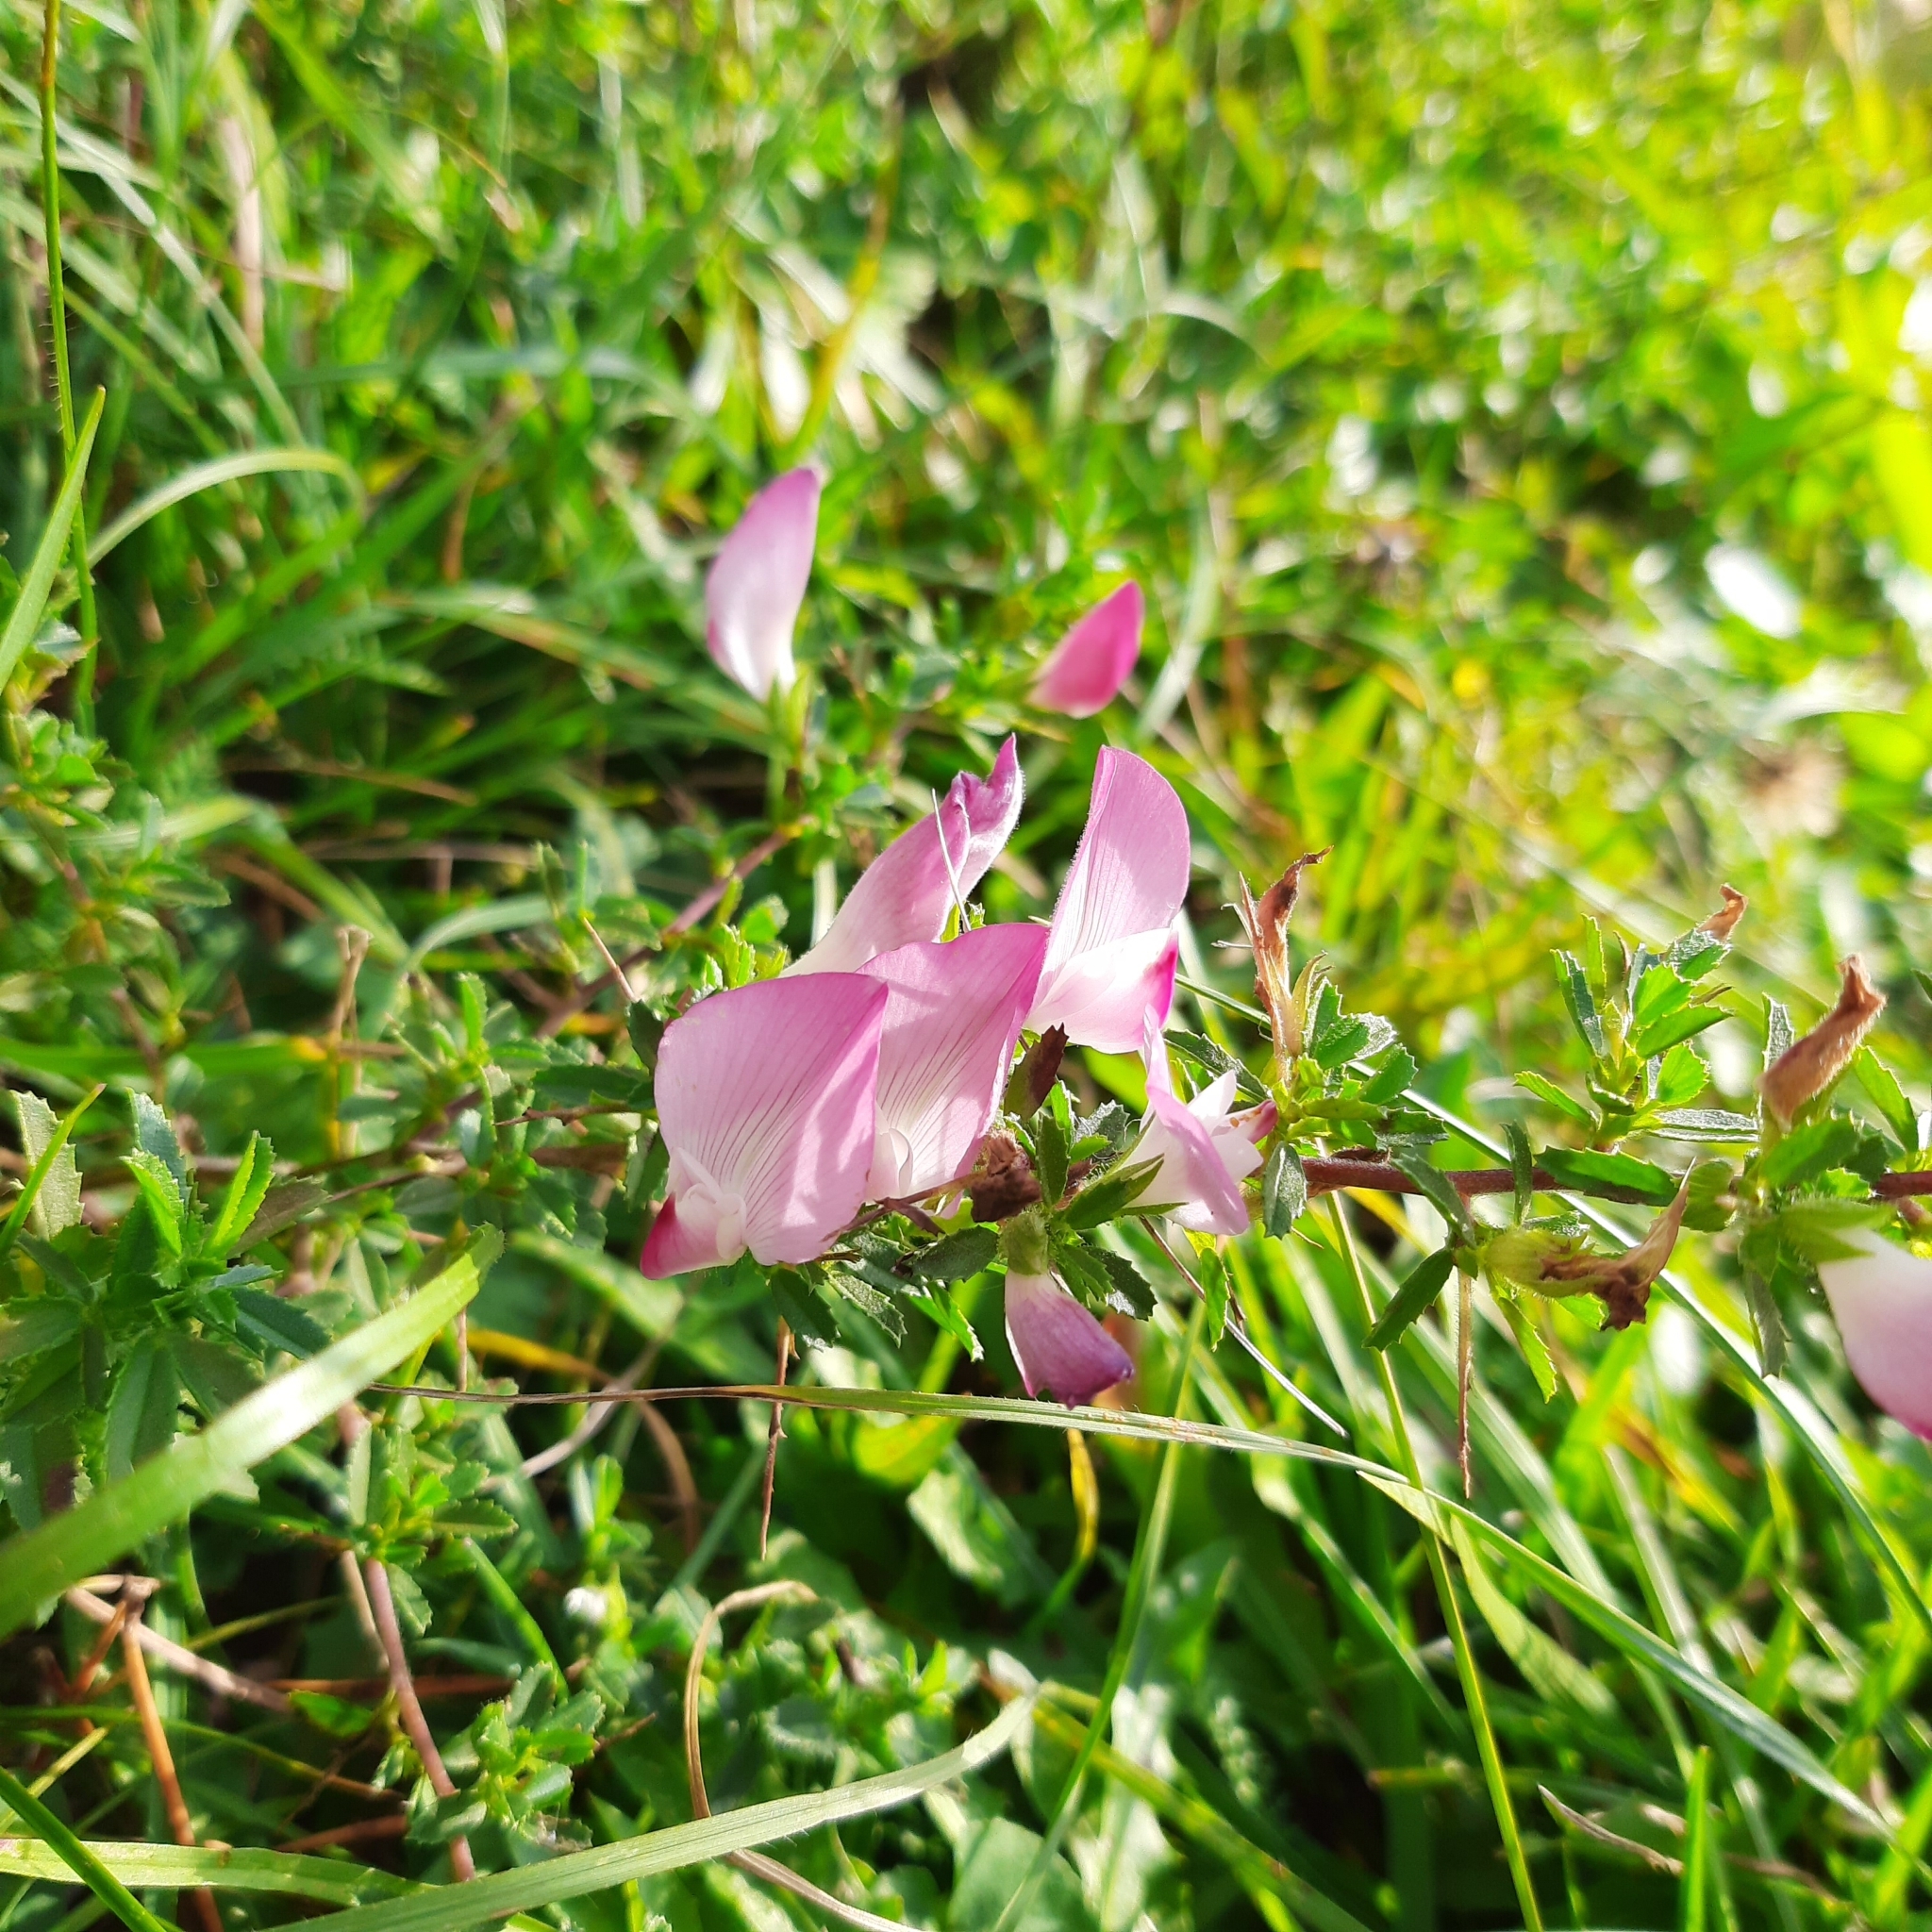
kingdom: Plantae
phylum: Tracheophyta
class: Magnoliopsida
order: Fabales
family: Fabaceae
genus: Ononis
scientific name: Ononis spinosa
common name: Spiny restharrow
